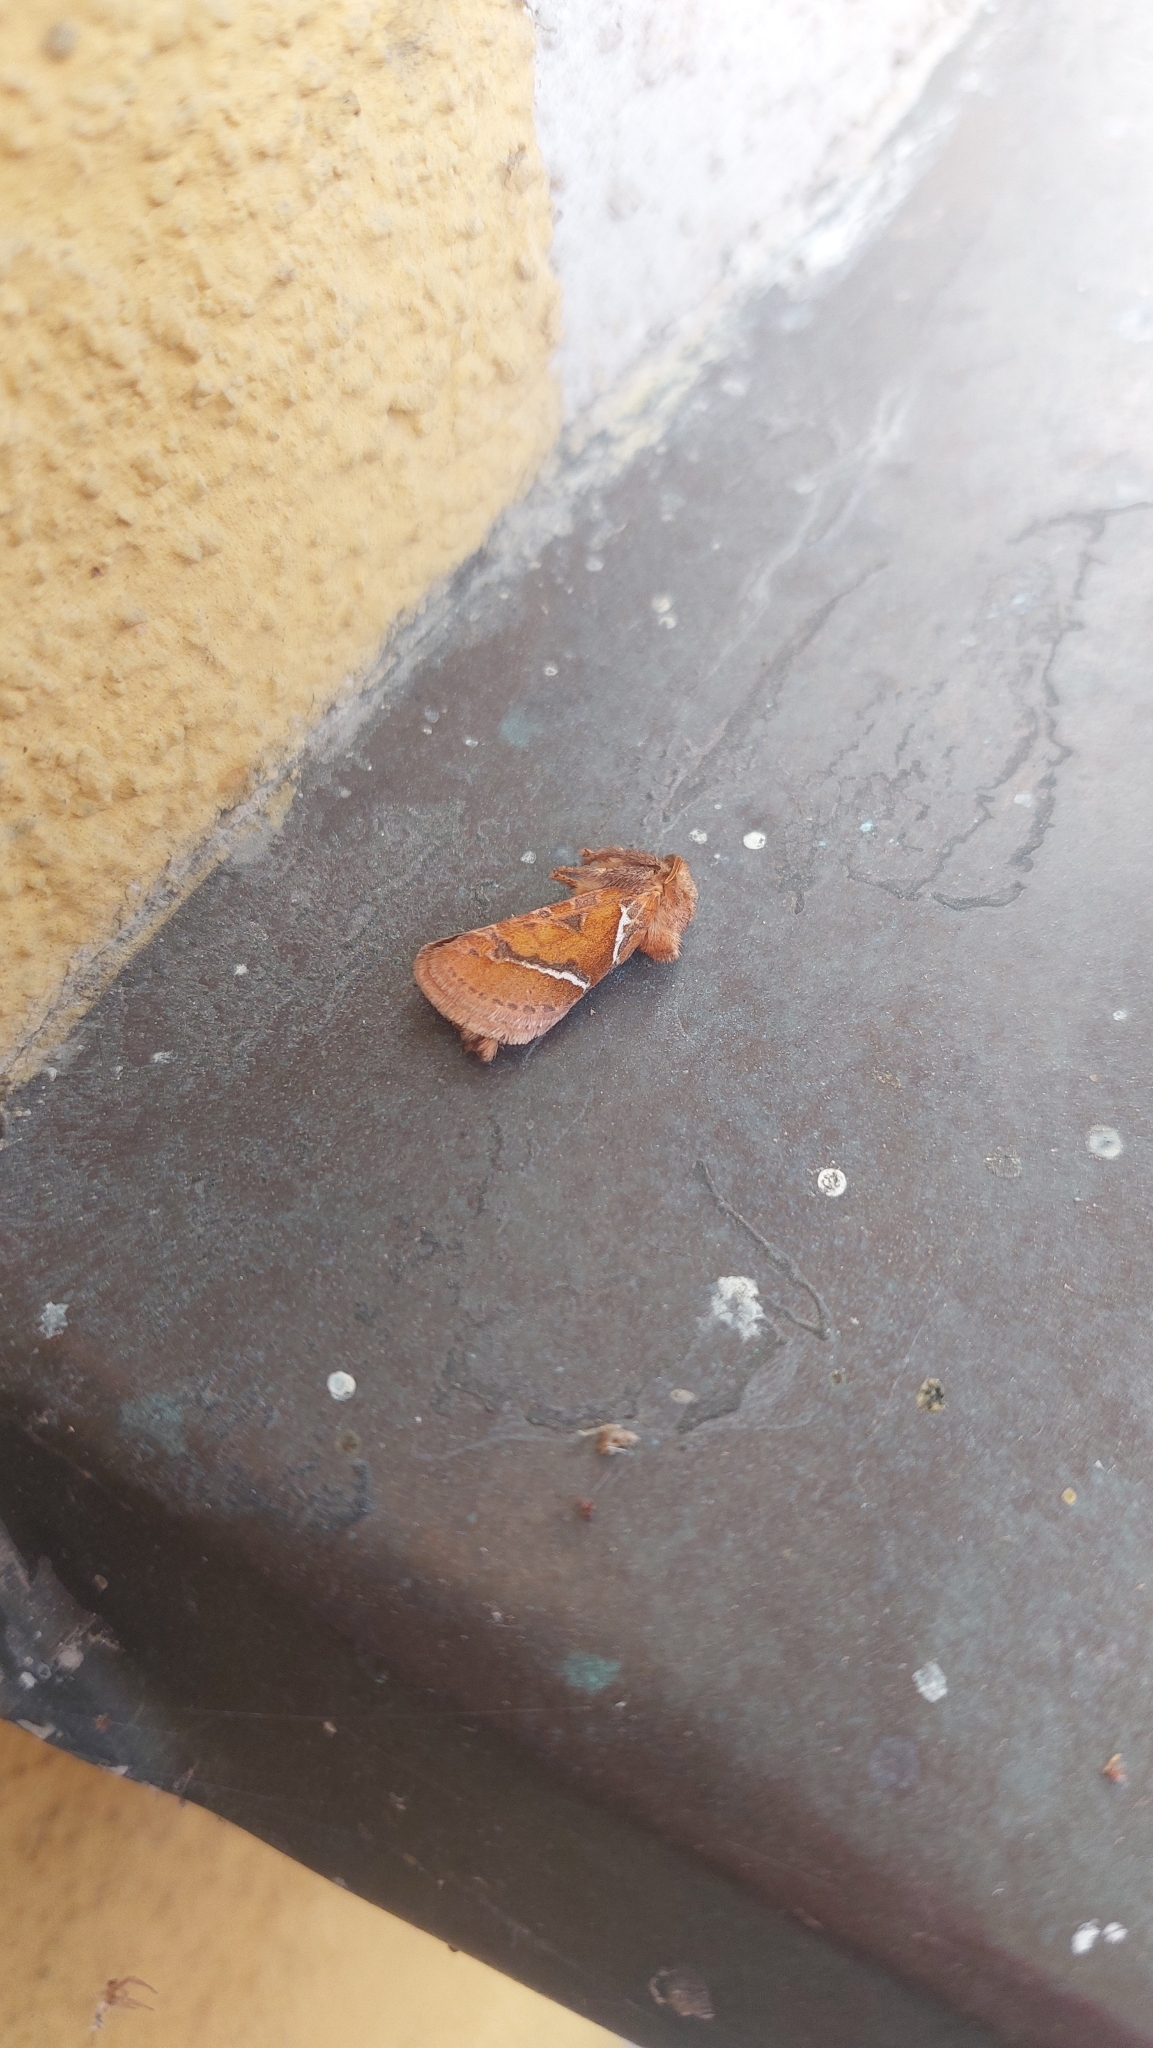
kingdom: Animalia
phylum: Arthropoda
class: Insecta
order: Lepidoptera
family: Hepialidae
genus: Triodia
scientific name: Triodia sylvina
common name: Orange swift
